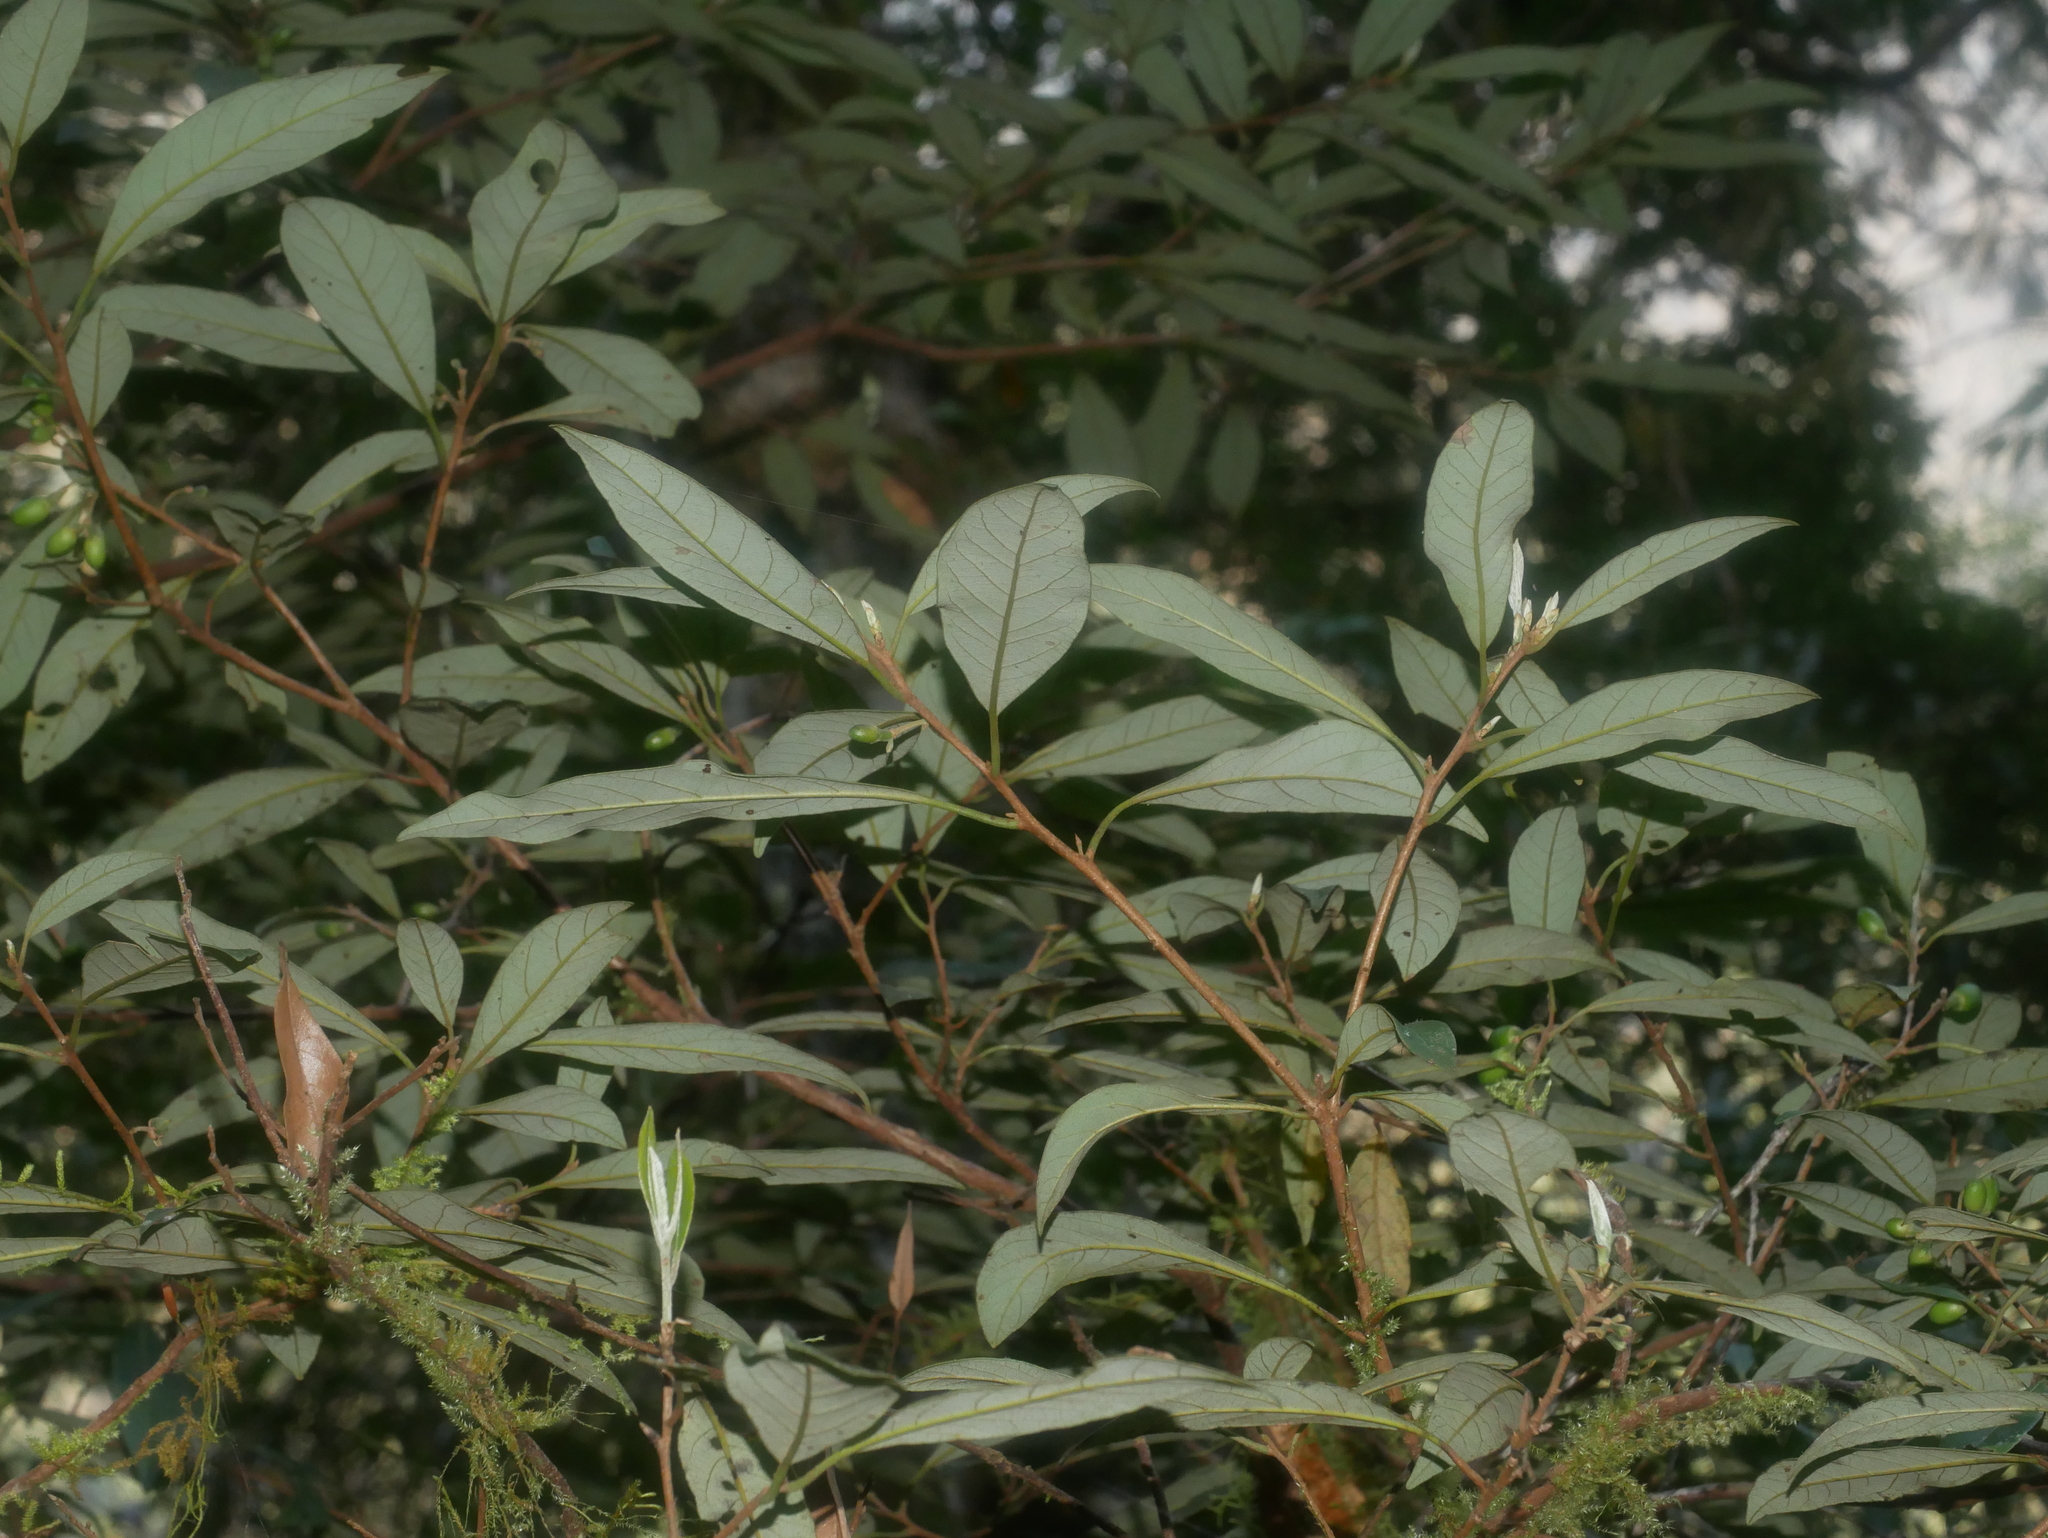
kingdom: Plantae
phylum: Tracheophyta
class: Magnoliopsida
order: Laurales
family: Lauraceae
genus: Litsea
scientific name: Litsea morrisonensis
